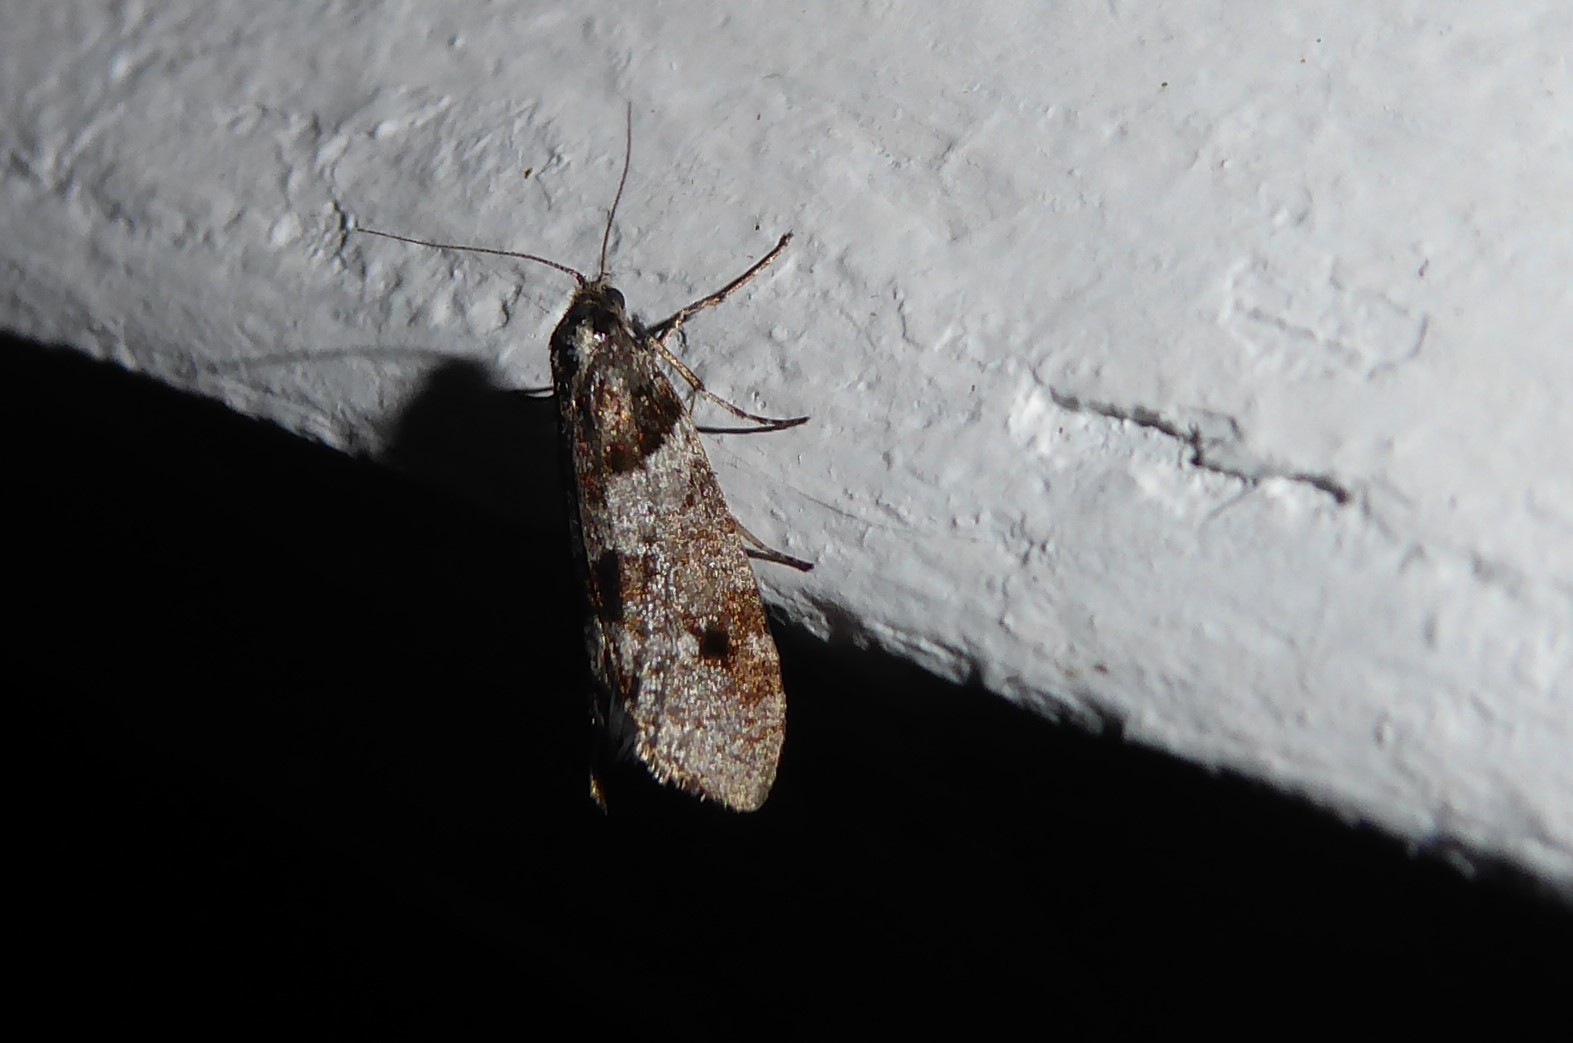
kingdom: Animalia
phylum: Arthropoda
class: Insecta
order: Lepidoptera
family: Psychidae
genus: Lepidoscia
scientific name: Lepidoscia heliochares
